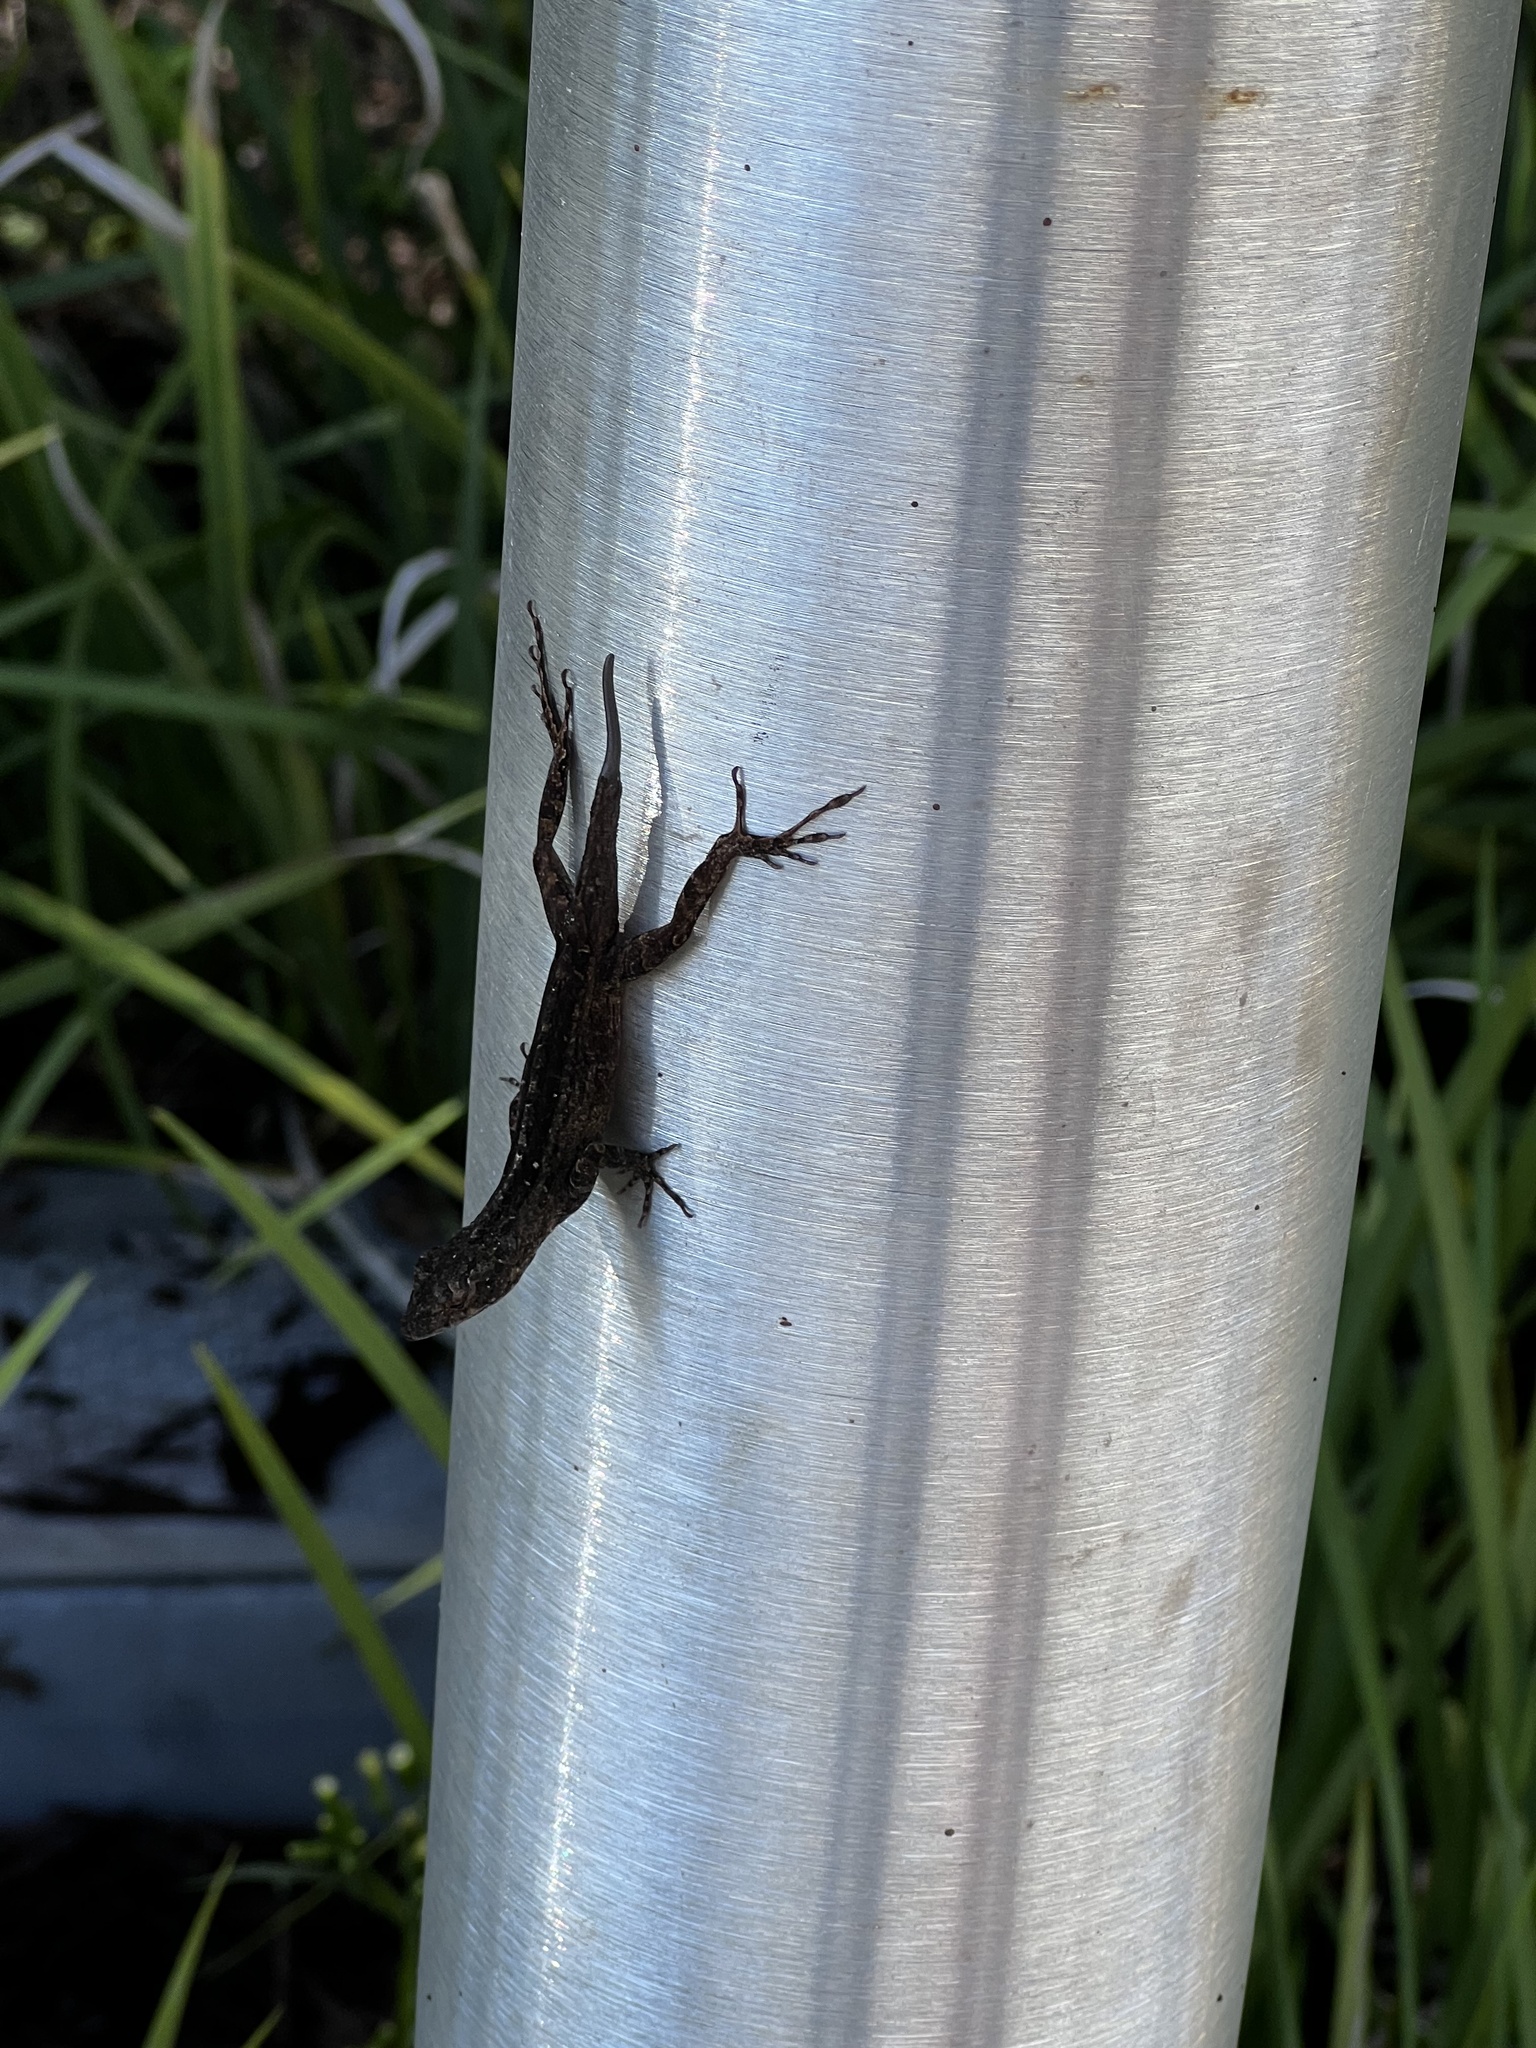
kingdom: Animalia
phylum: Chordata
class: Squamata
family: Dactyloidae
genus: Anolis
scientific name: Anolis sagrei
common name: Brown anole
